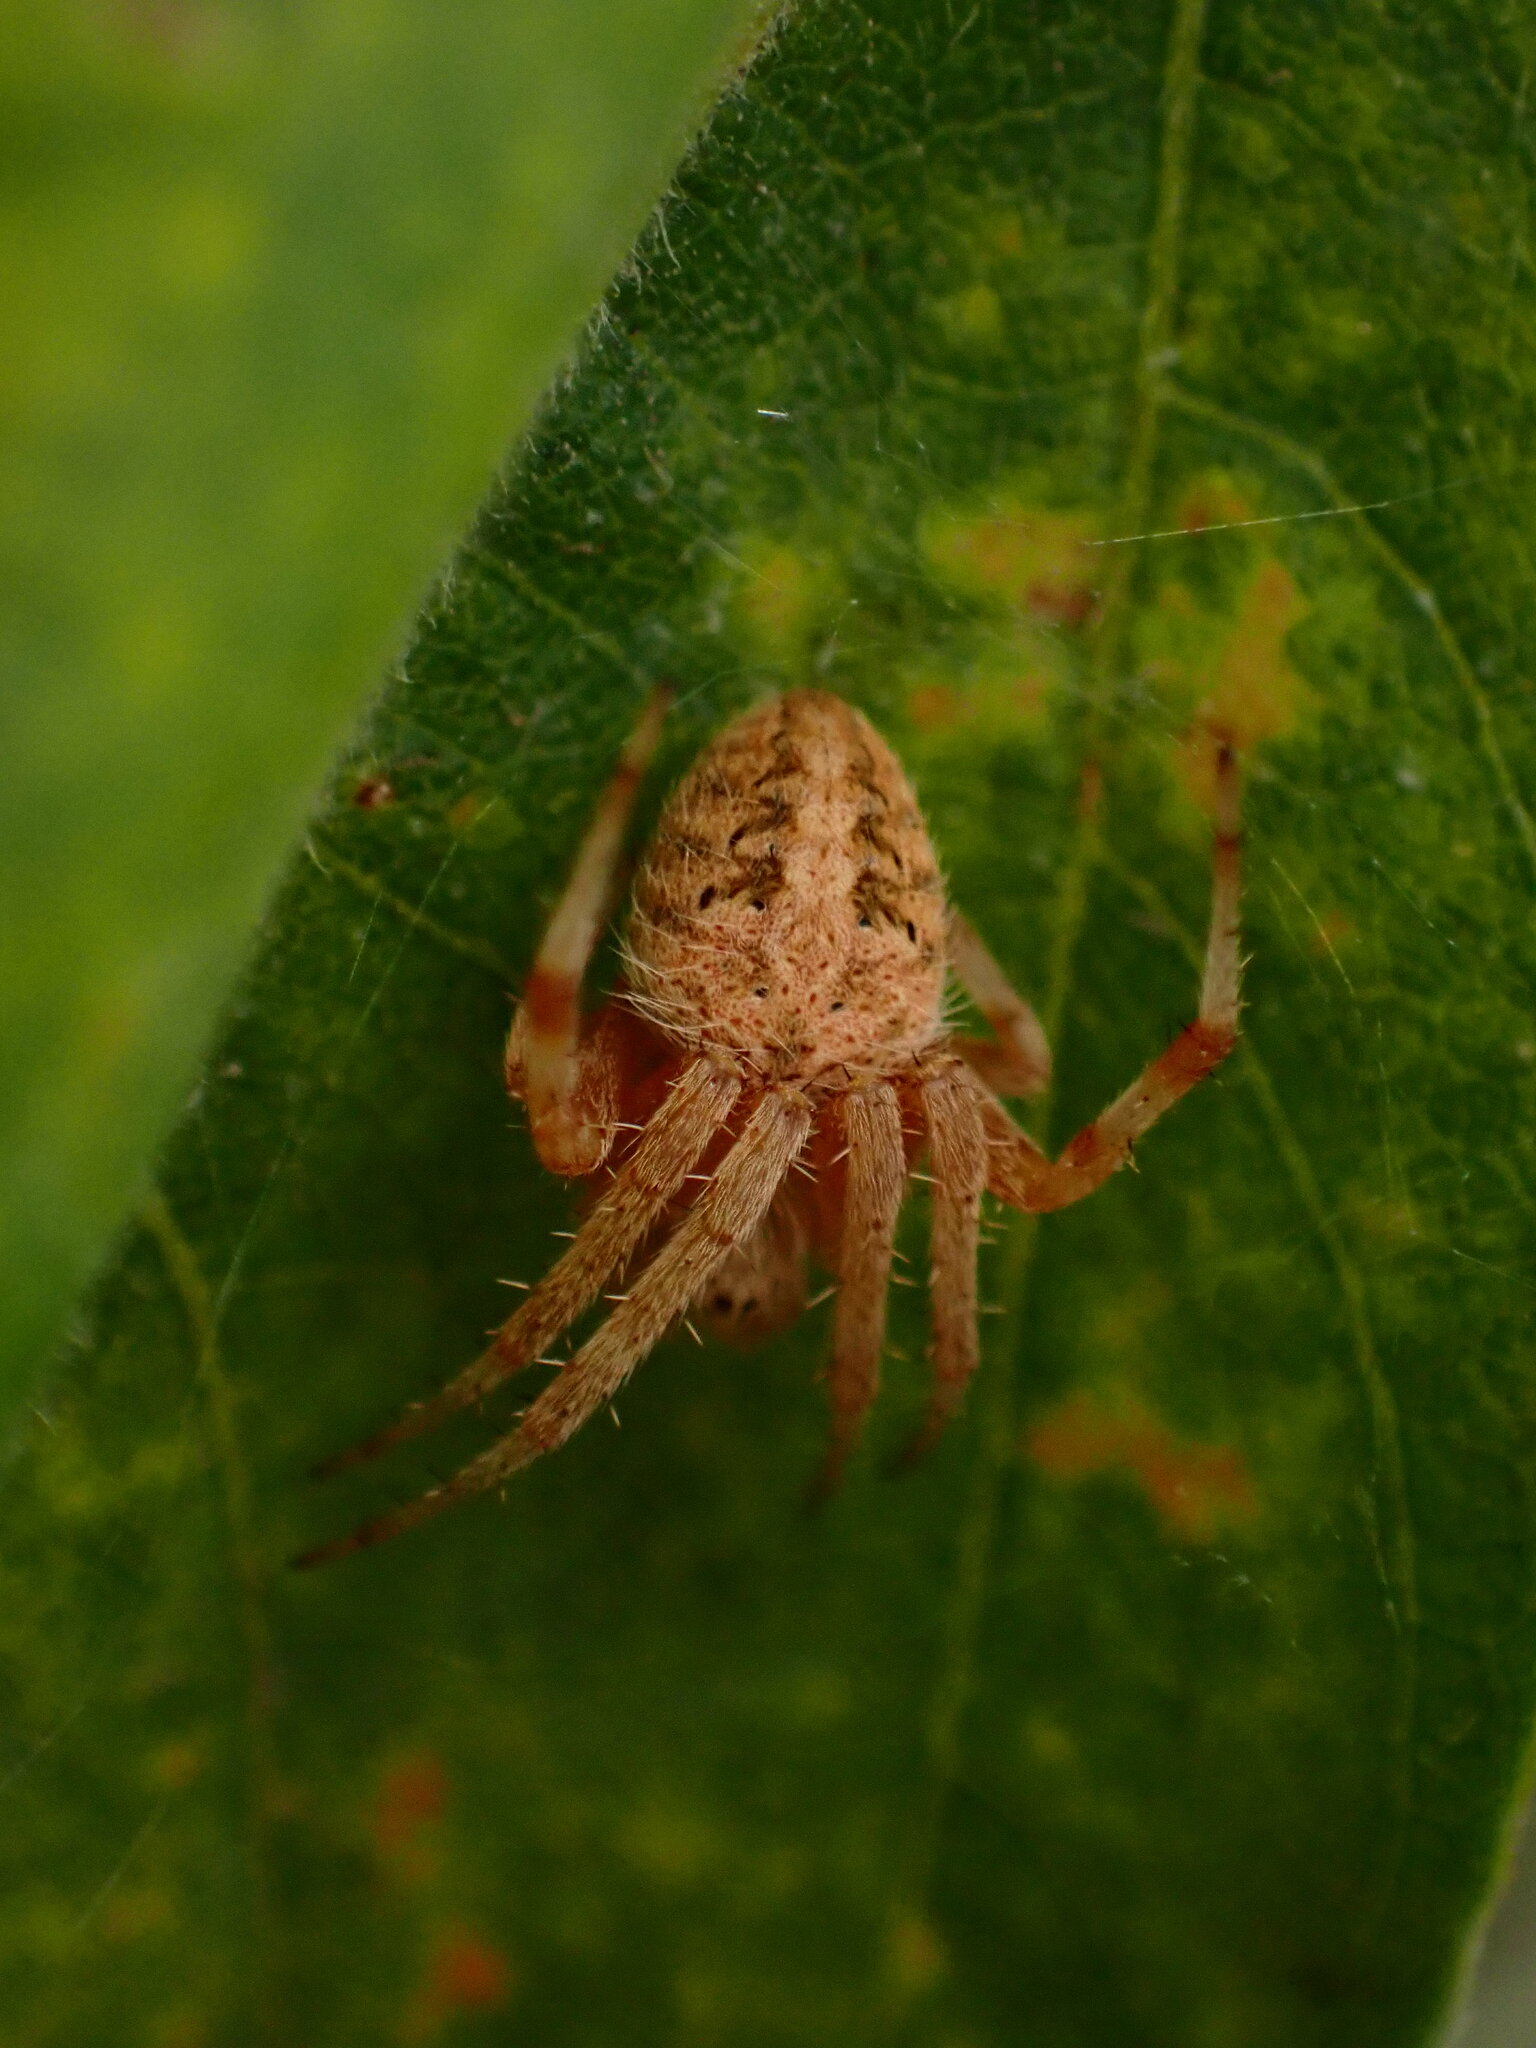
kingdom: Animalia
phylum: Arthropoda
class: Arachnida
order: Araneae
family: Araneidae
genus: Neoscona
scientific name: Neoscona crucifera
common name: Spotted orbweaver
